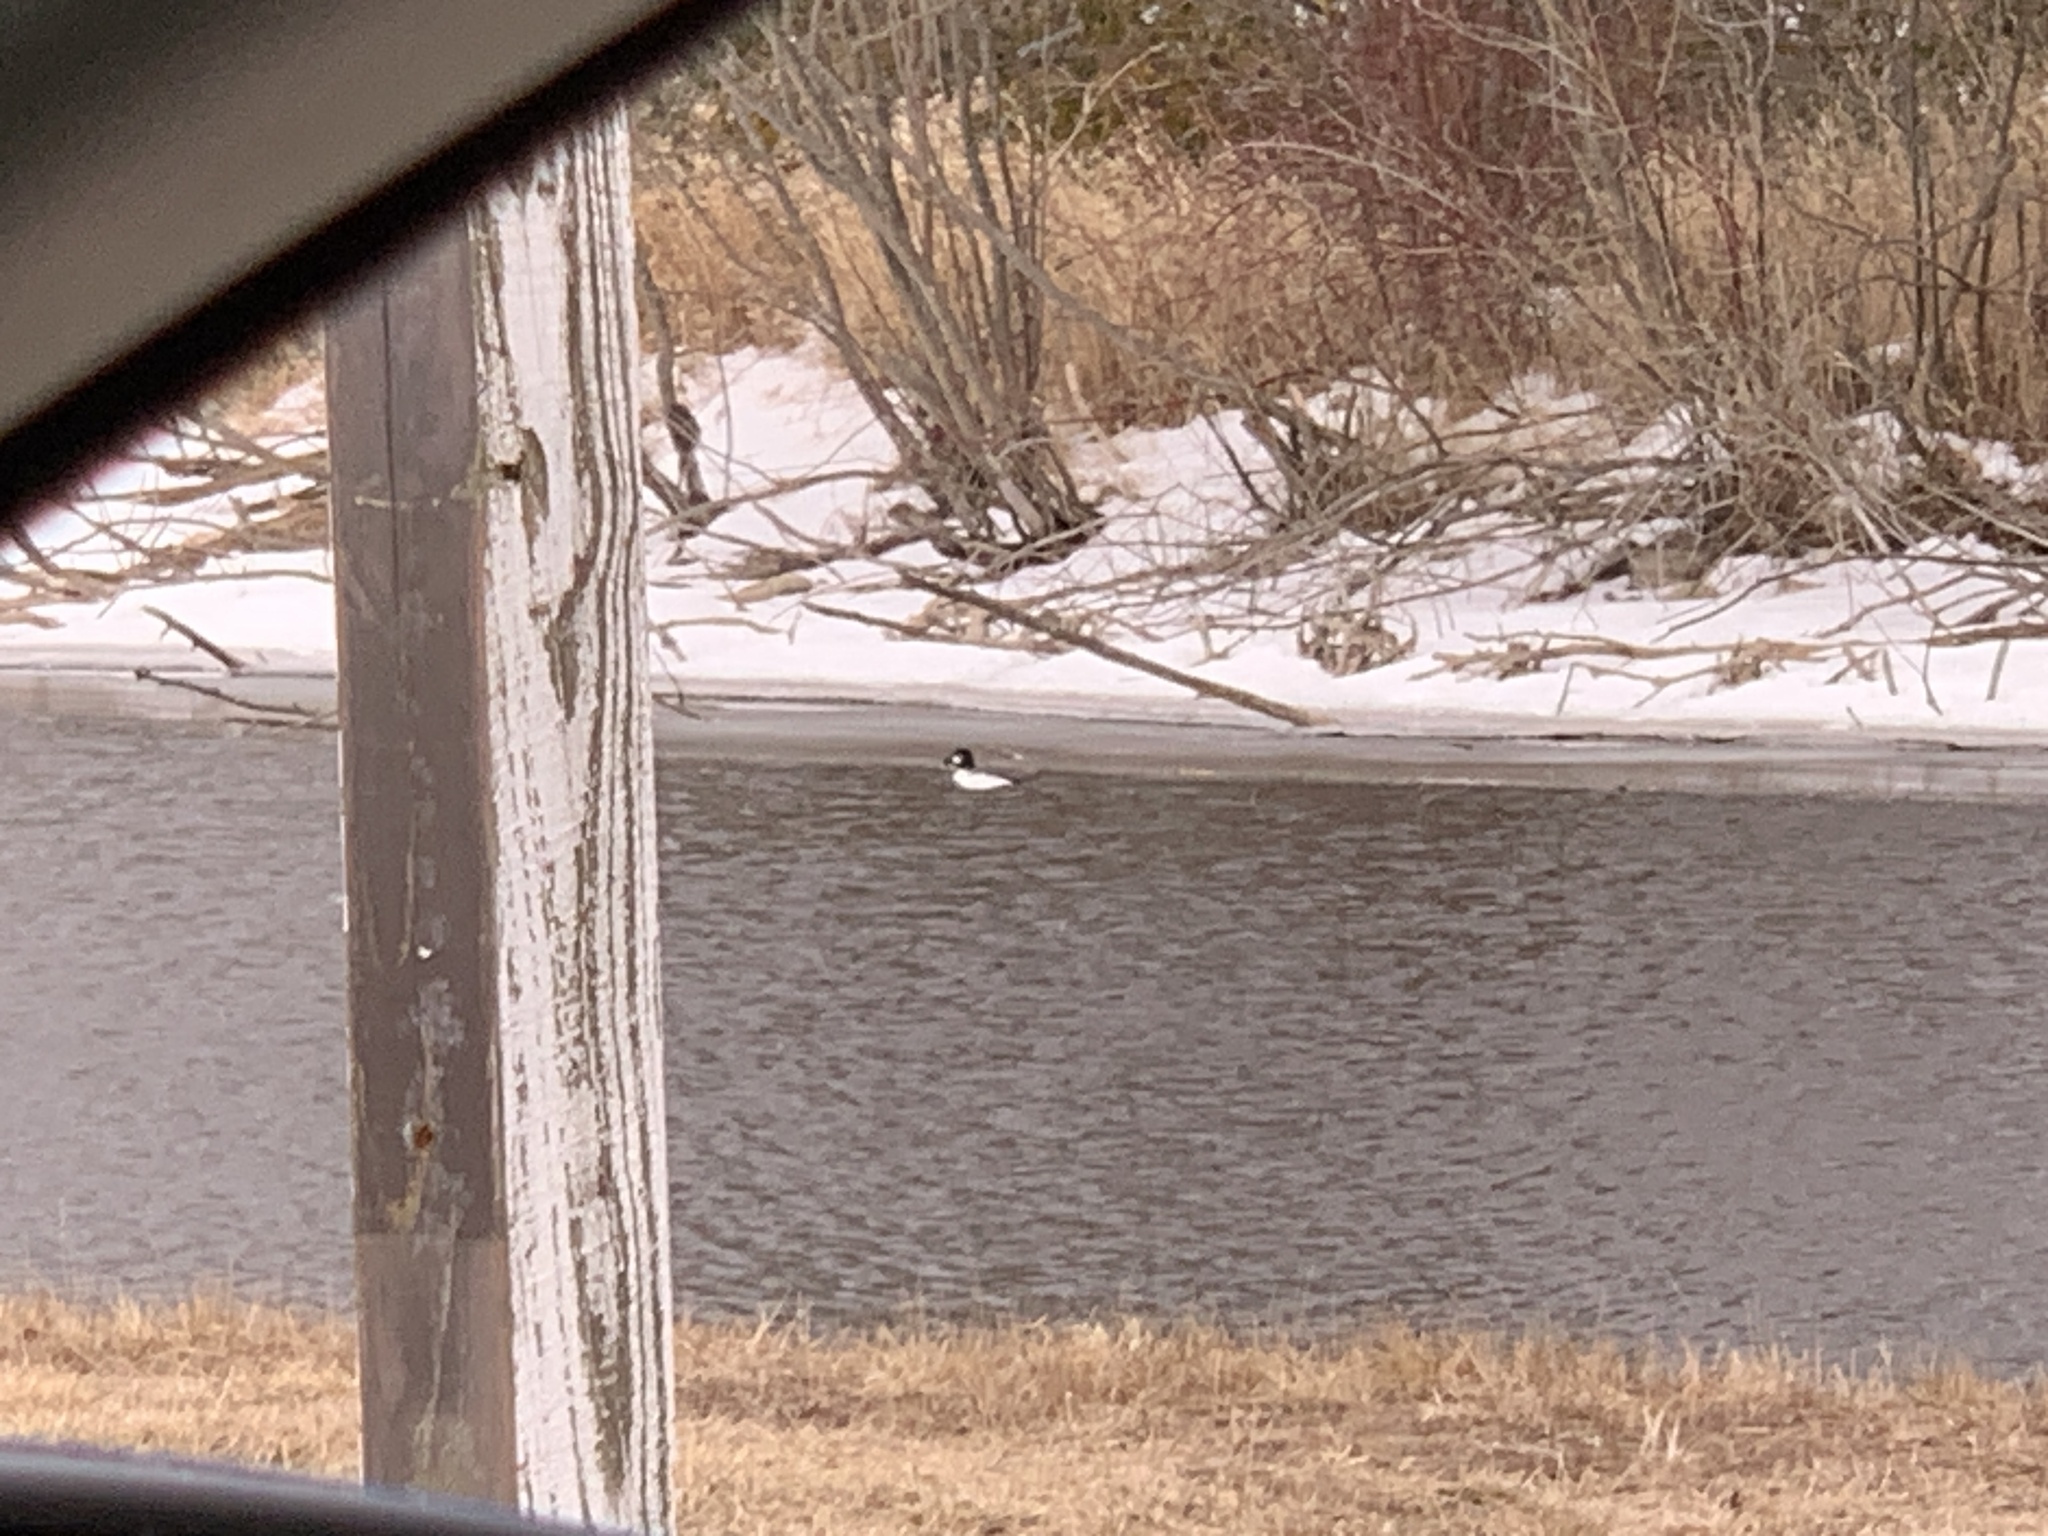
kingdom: Animalia
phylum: Chordata
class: Aves
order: Anseriformes
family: Anatidae
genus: Bucephala
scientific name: Bucephala clangula
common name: Common goldeneye
